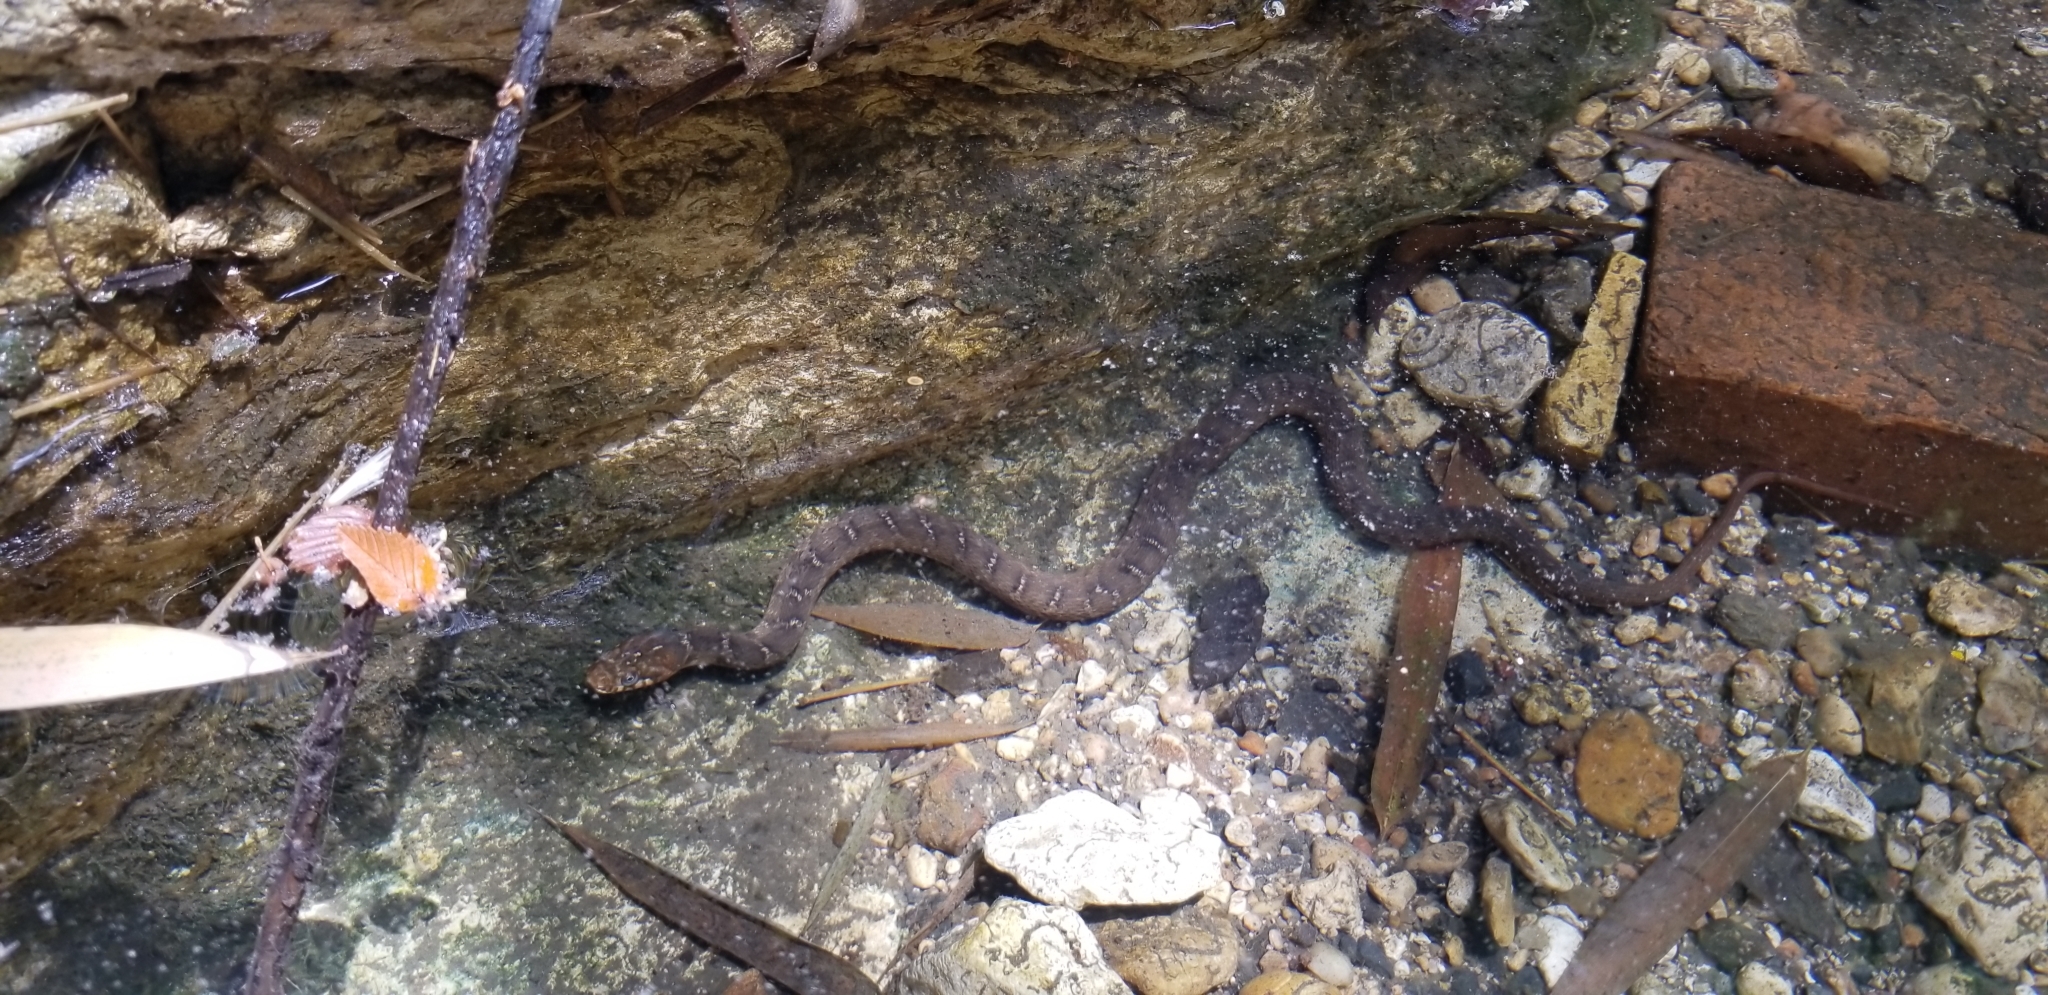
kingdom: Animalia
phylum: Chordata
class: Squamata
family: Colubridae
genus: Nerodia
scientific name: Nerodia erythrogaster
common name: Plainbelly water snake
